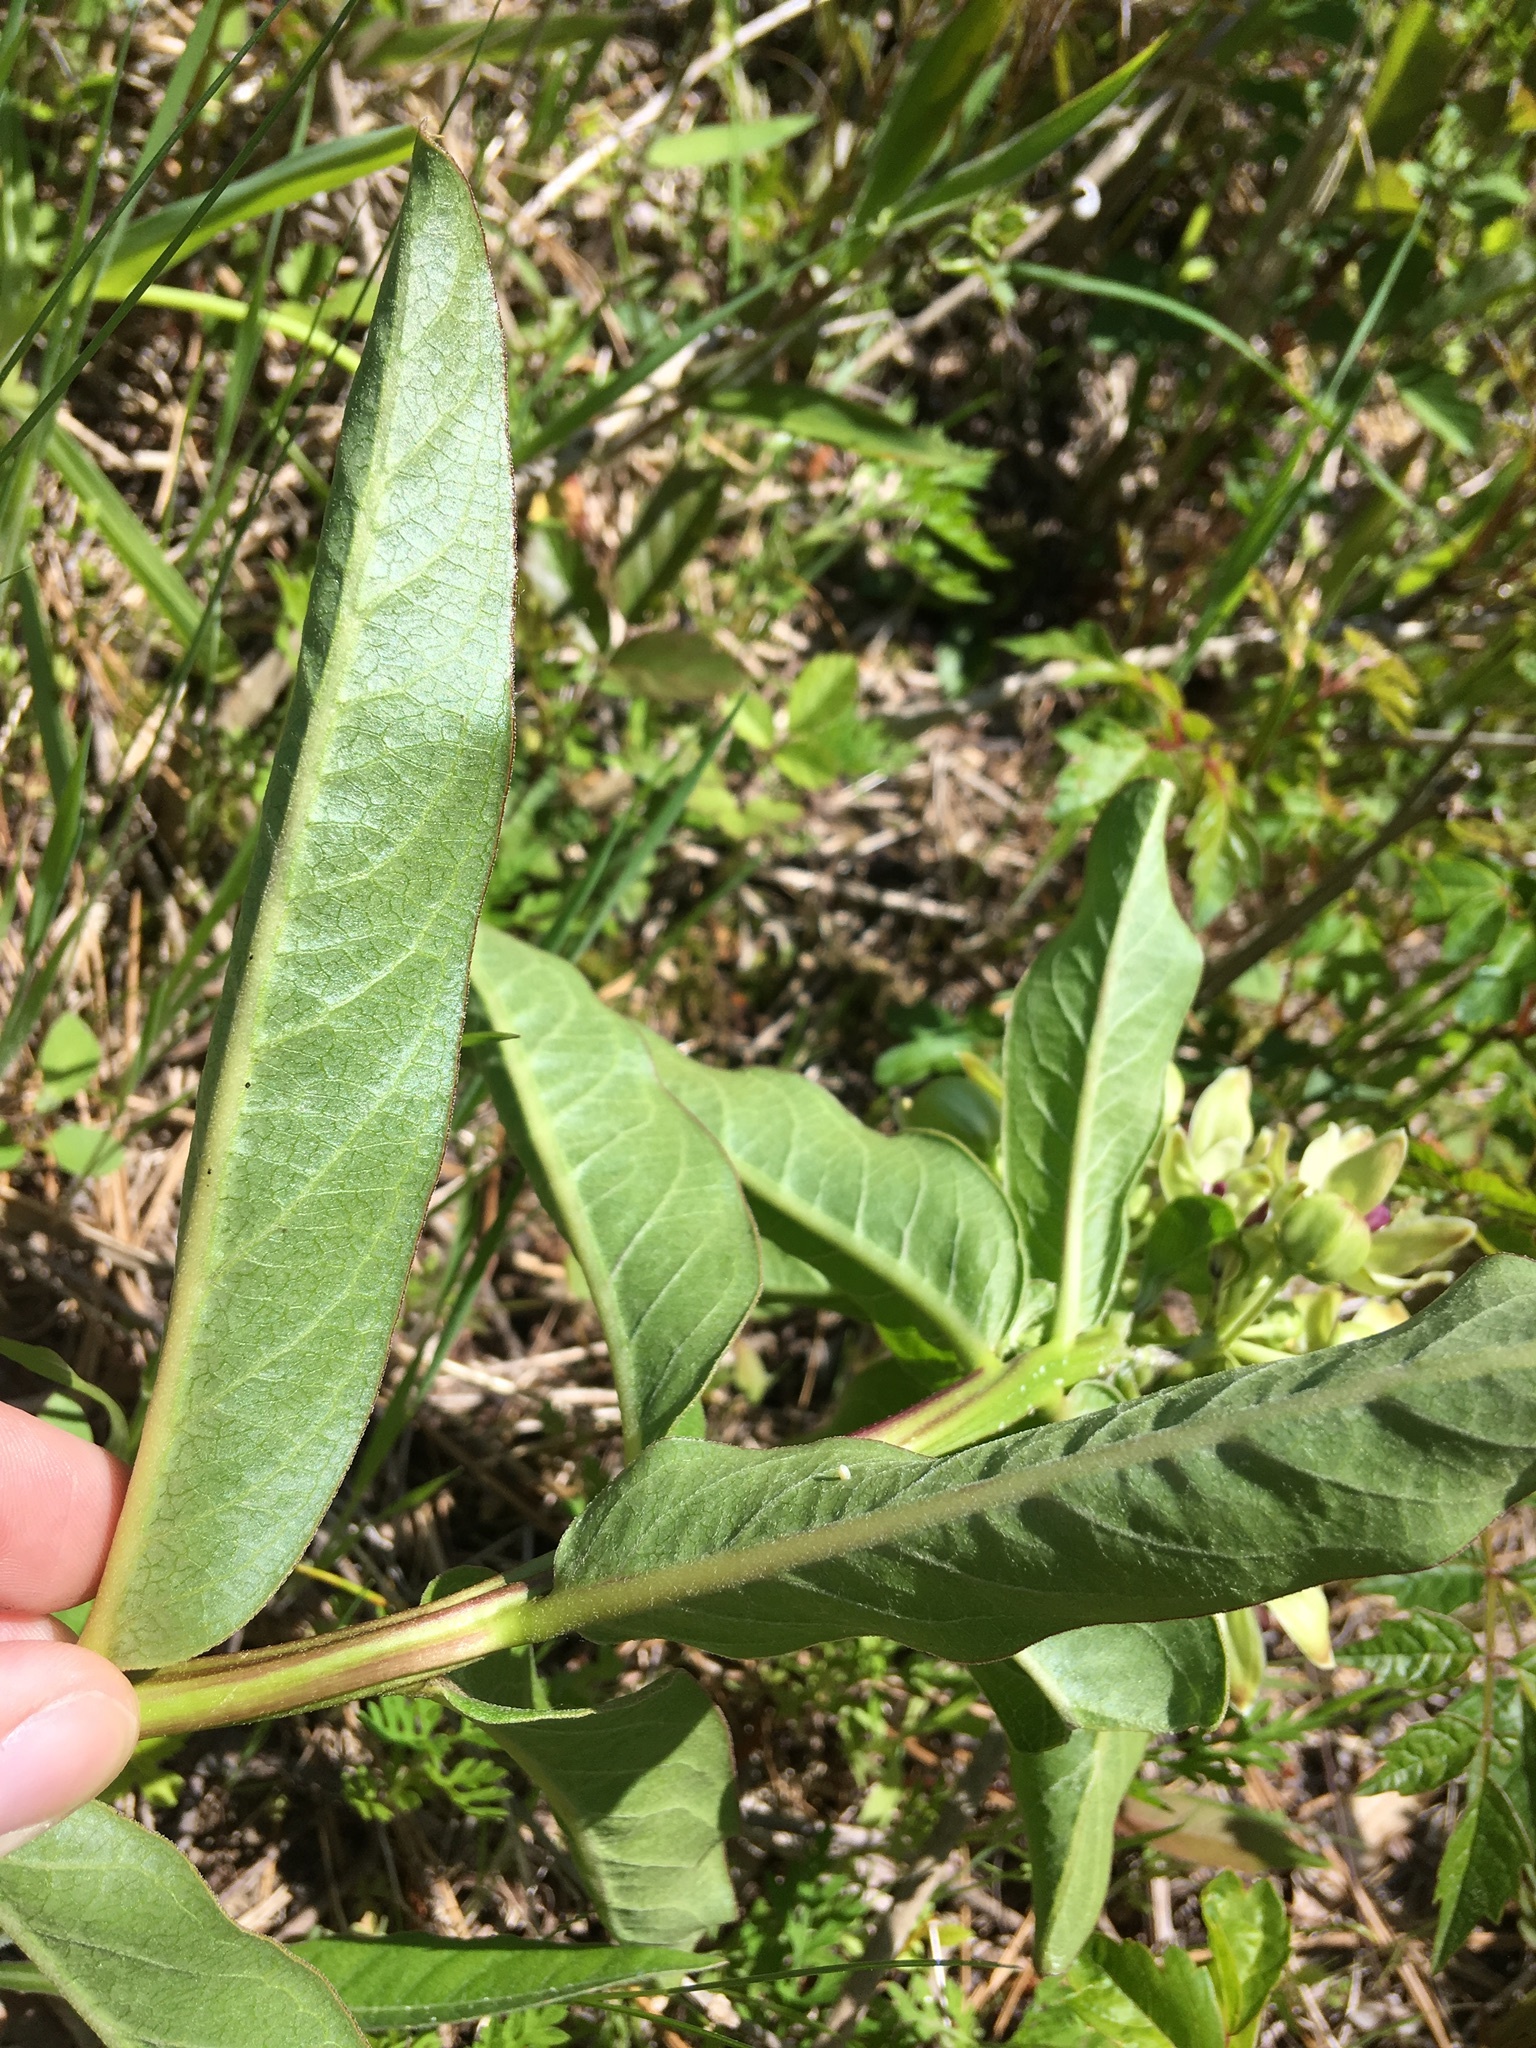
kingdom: Animalia
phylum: Arthropoda
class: Insecta
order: Lepidoptera
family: Nymphalidae
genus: Danaus
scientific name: Danaus plexippus
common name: Monarch
